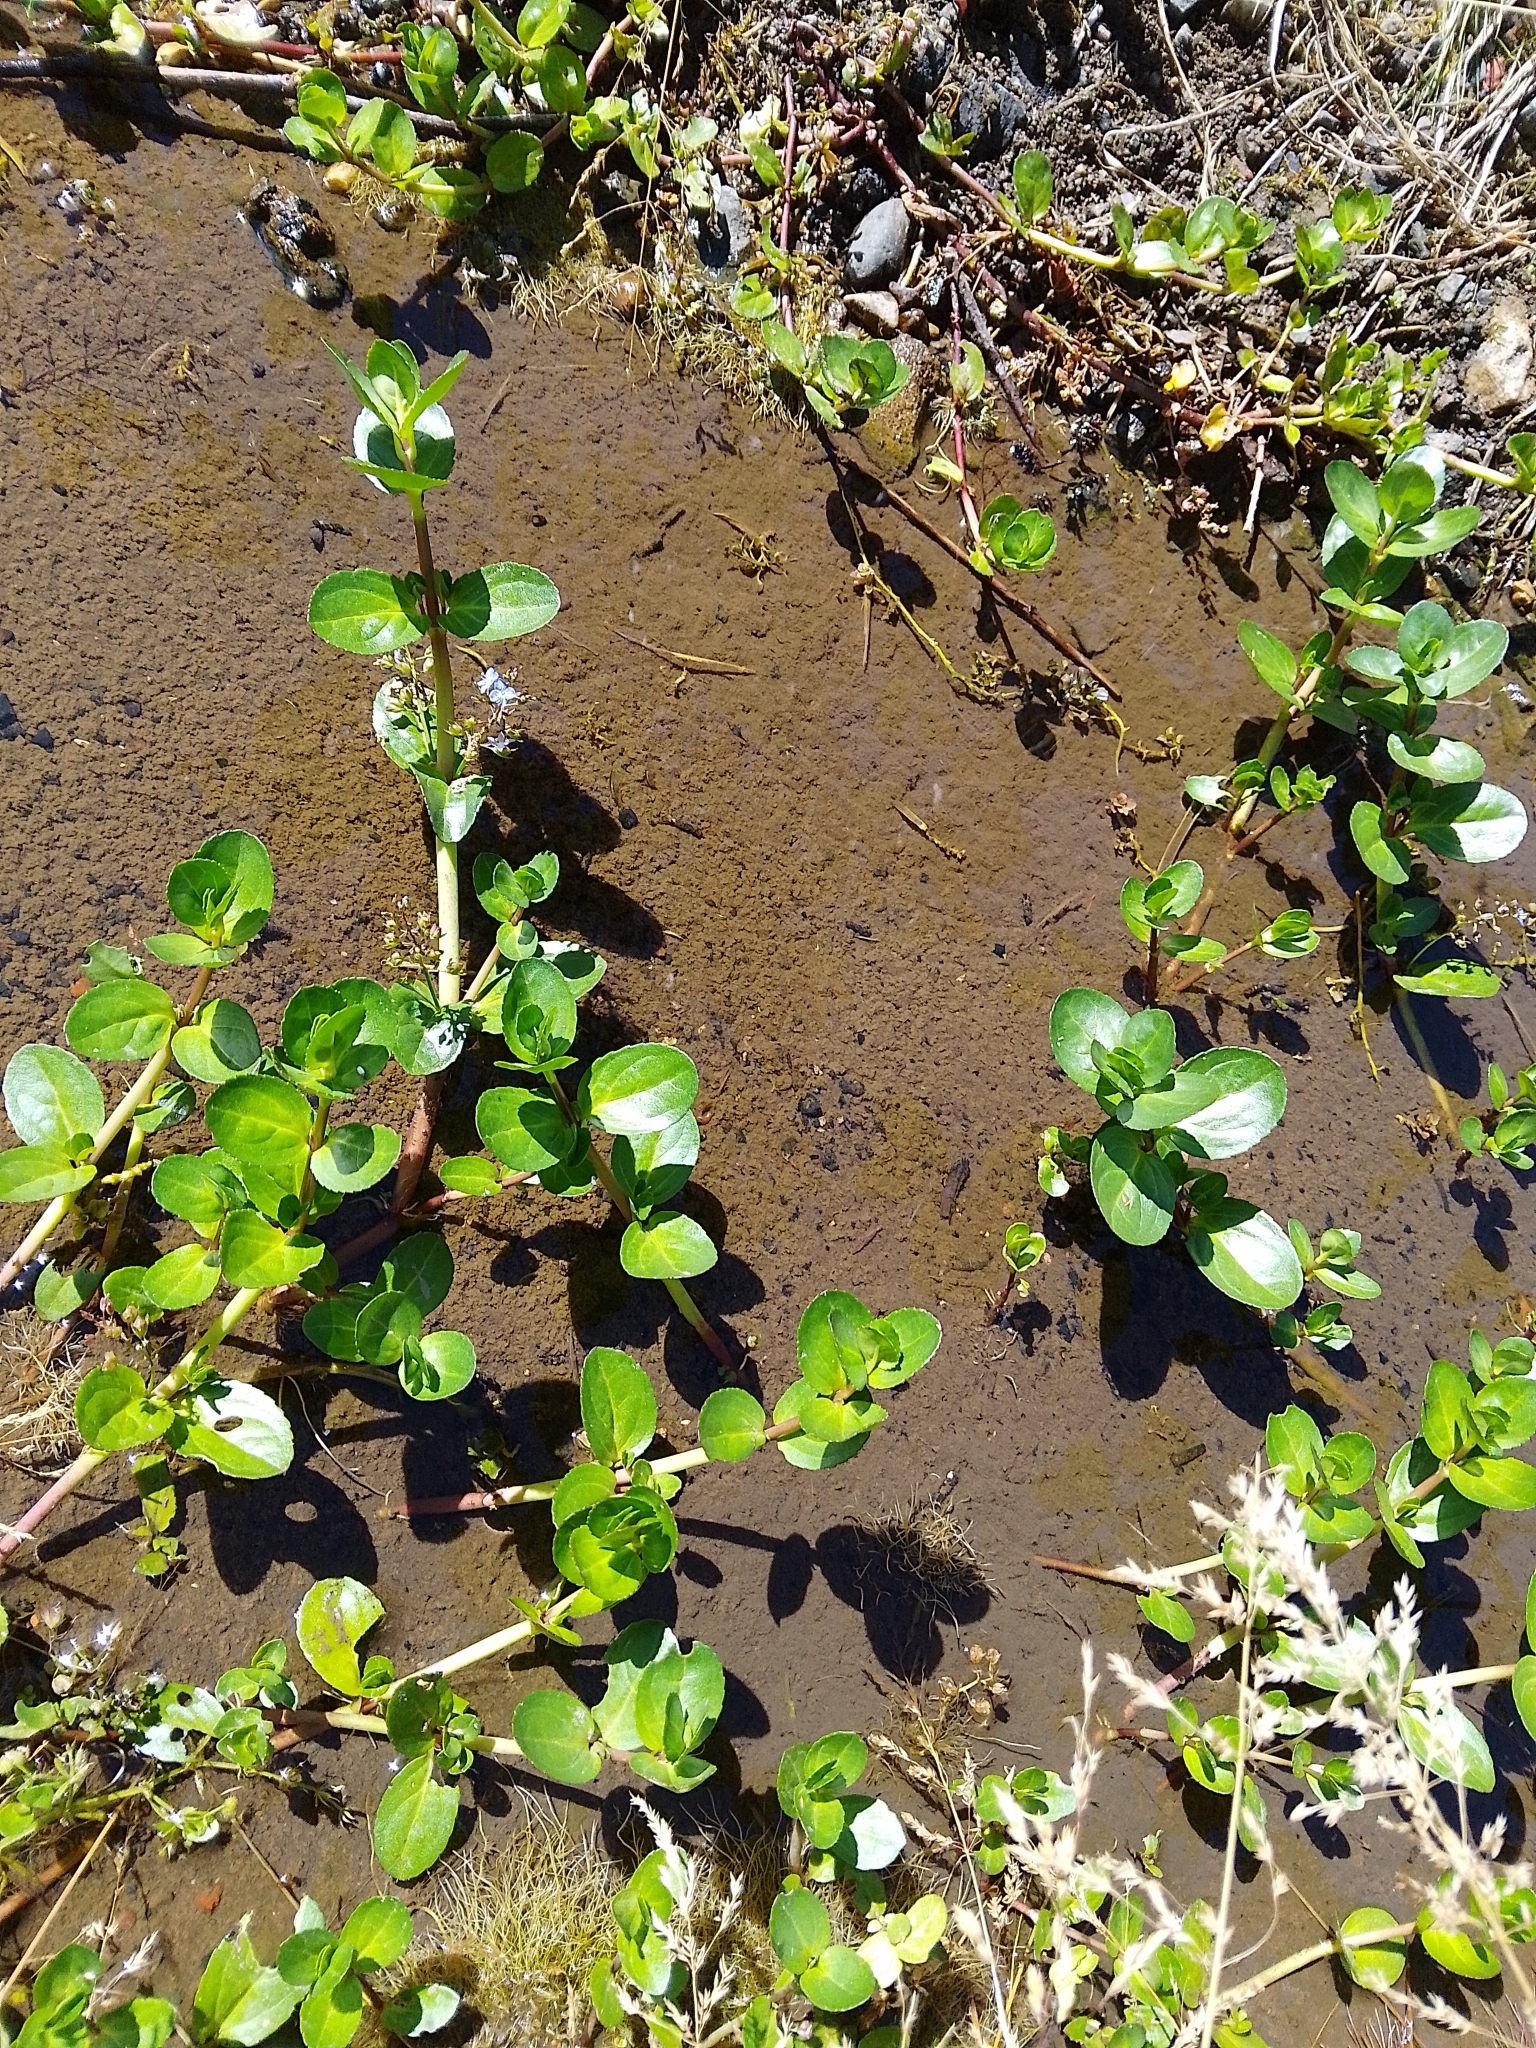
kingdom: Plantae
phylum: Tracheophyta
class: Magnoliopsida
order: Lamiales
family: Plantaginaceae
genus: Veronica
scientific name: Veronica beccabunga
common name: Brooklime
